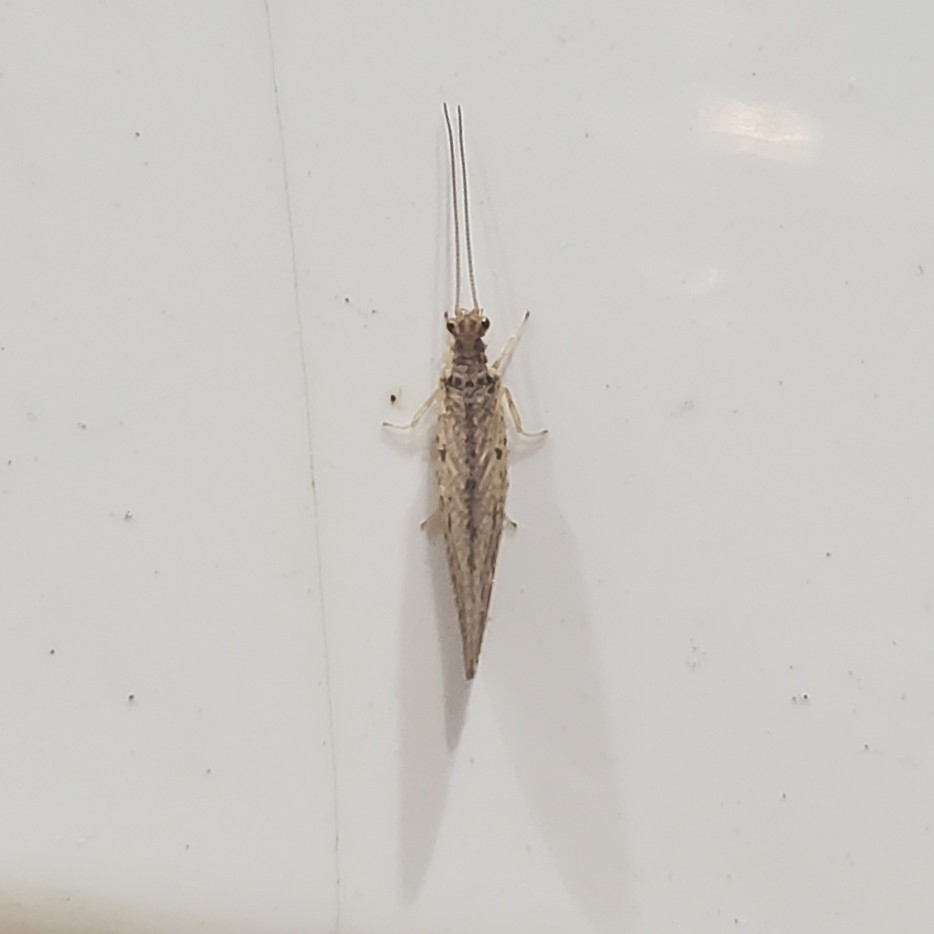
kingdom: Animalia
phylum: Arthropoda
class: Insecta
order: Neuroptera
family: Hemerobiidae
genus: Micromus
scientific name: Micromus subanticus
